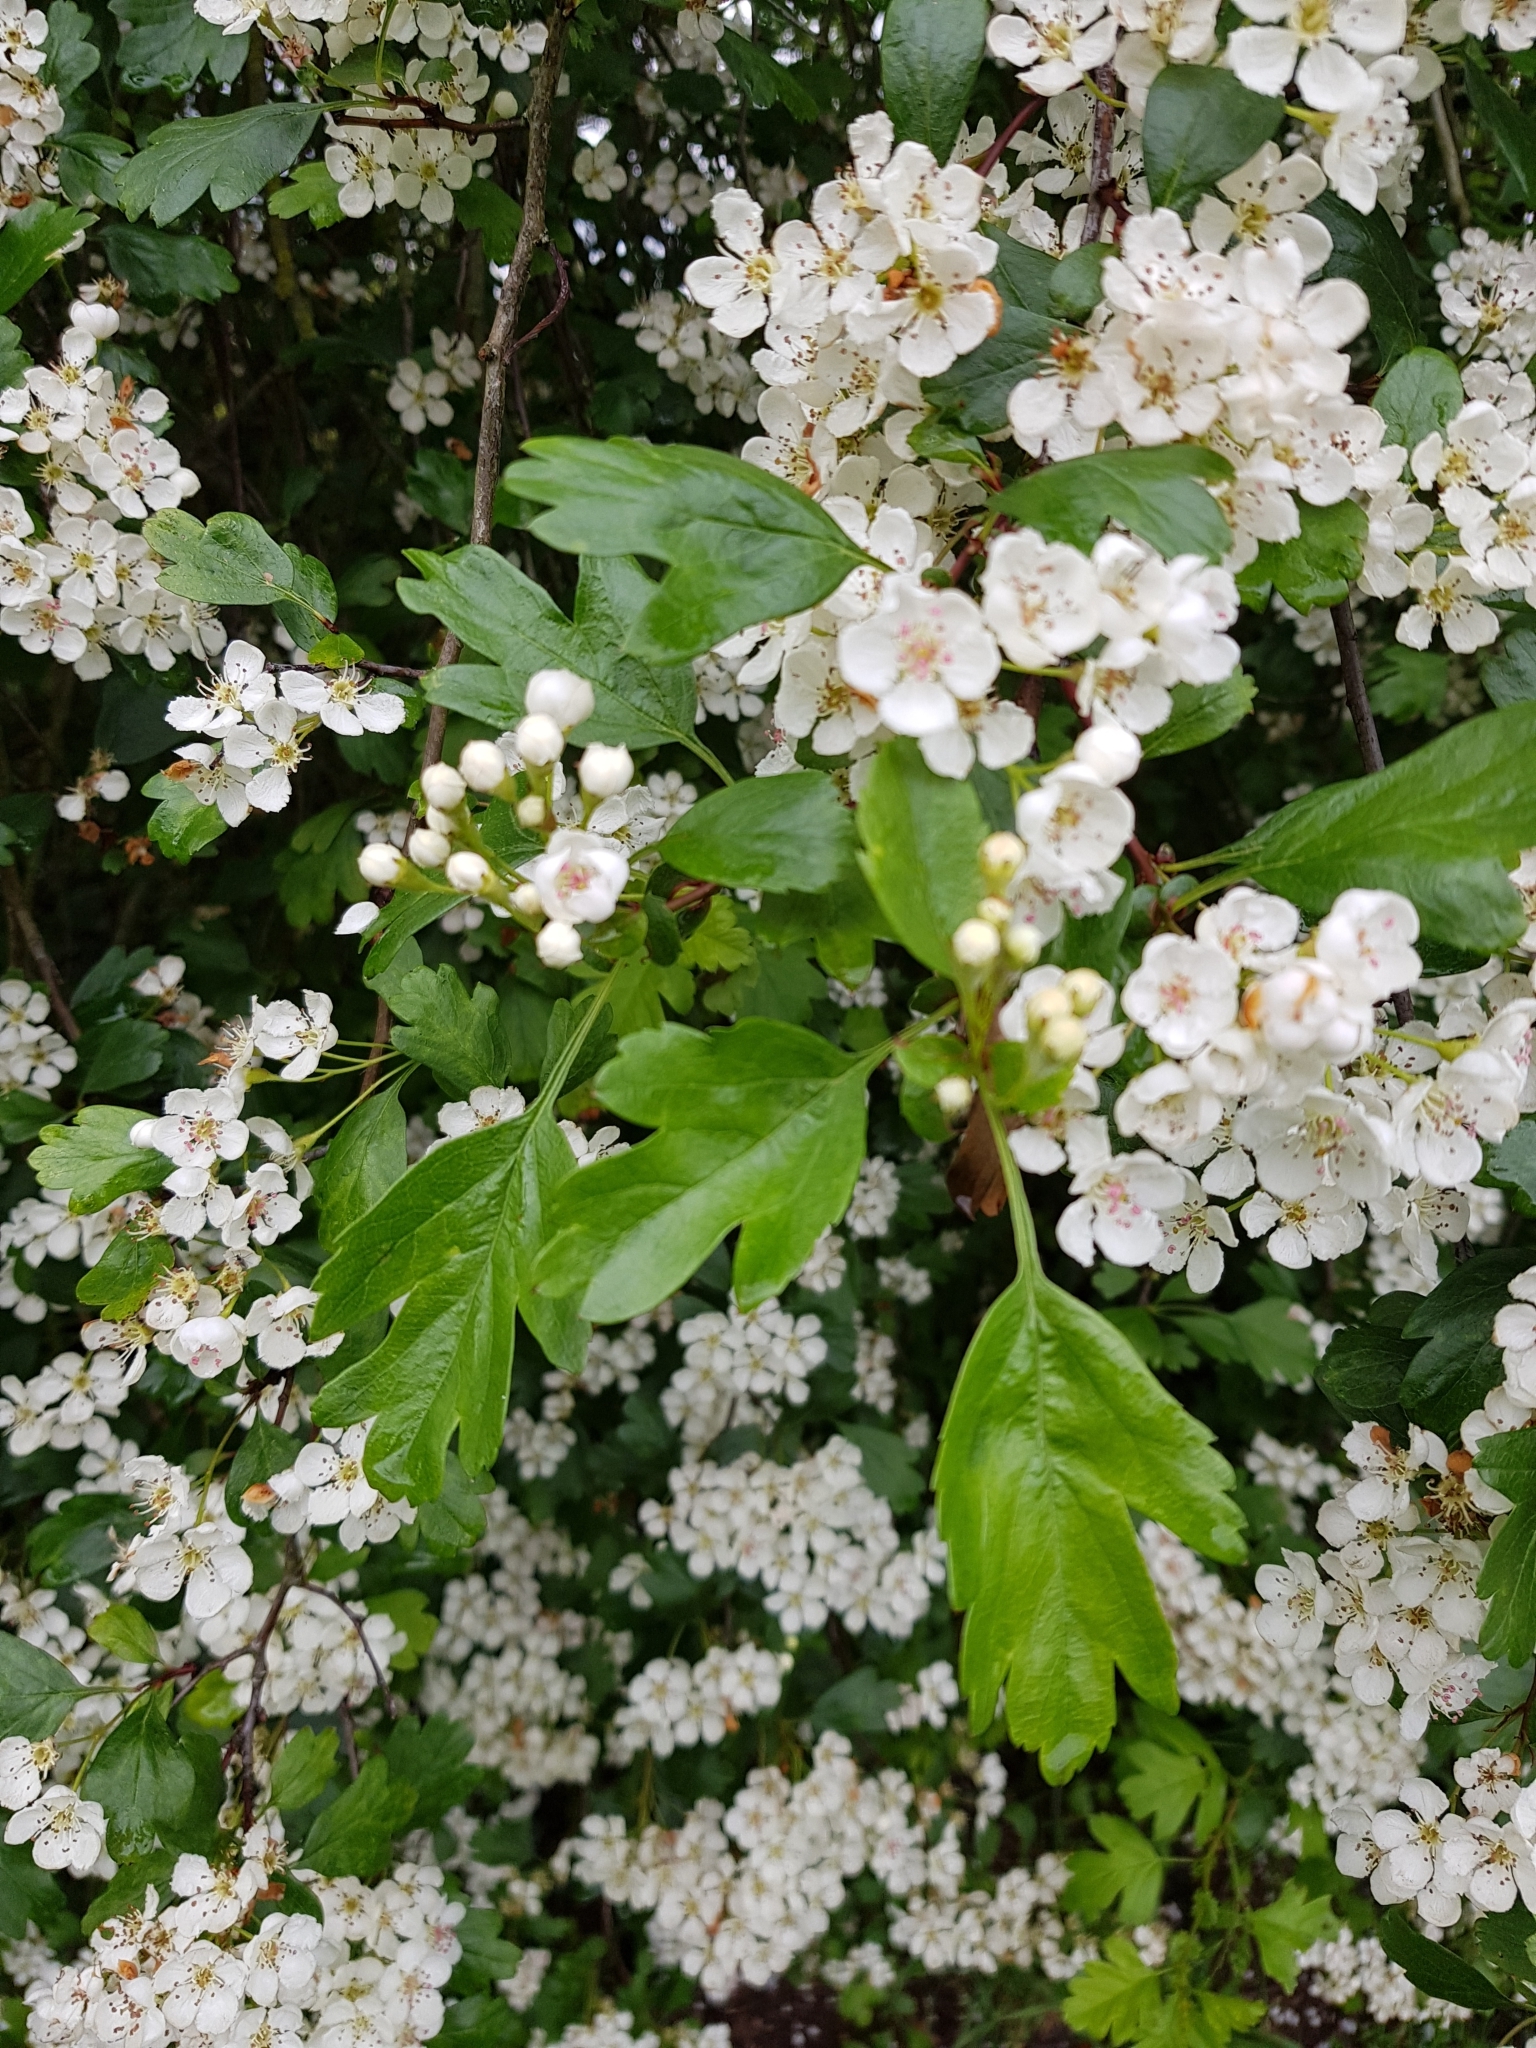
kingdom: Plantae
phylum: Tracheophyta
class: Magnoliopsida
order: Rosales
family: Rosaceae
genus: Crataegus
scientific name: Crataegus monogyna
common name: Hawthorn
